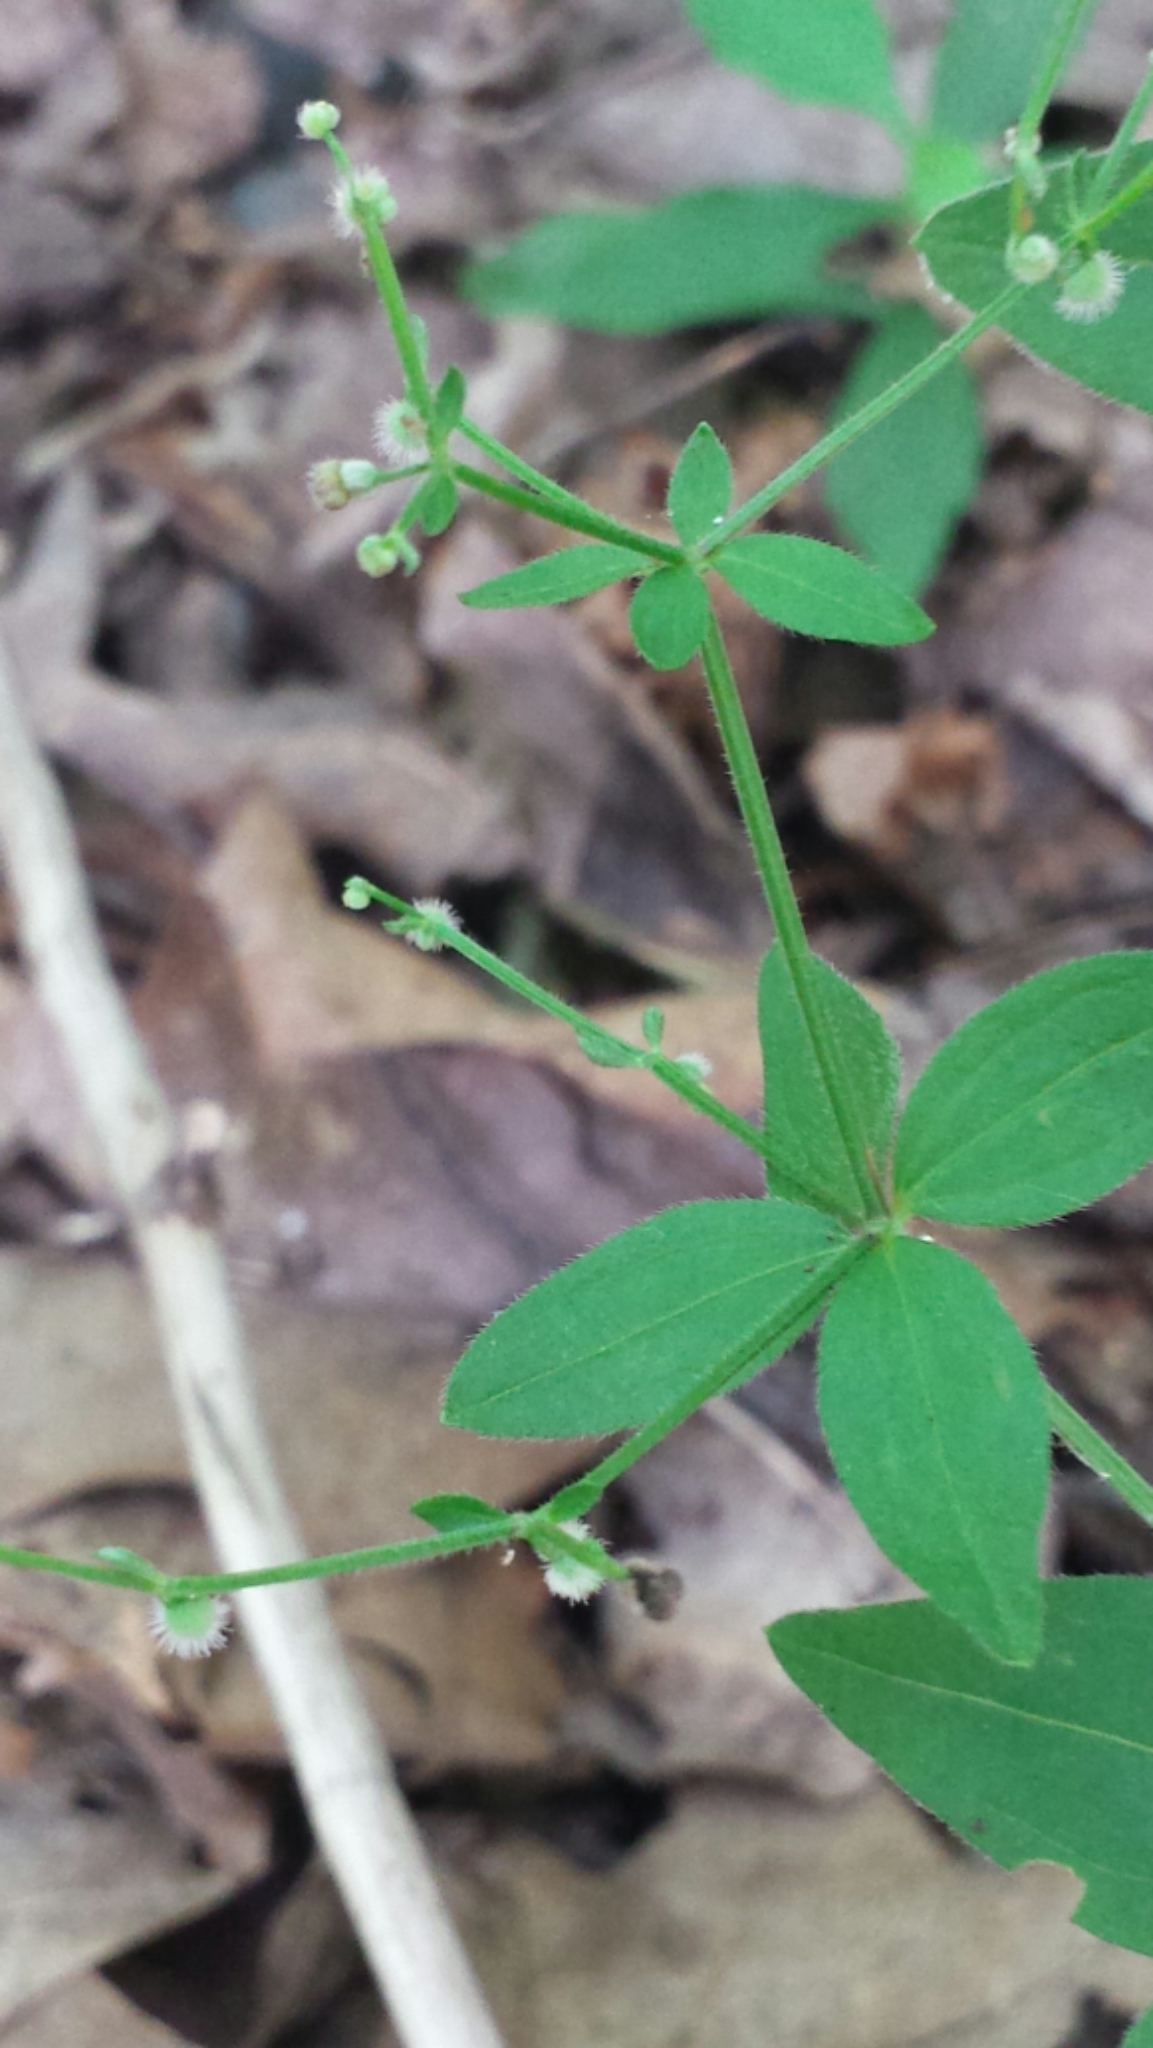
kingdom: Plantae
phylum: Tracheophyta
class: Magnoliopsida
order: Gentianales
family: Rubiaceae
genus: Galium
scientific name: Galium circaezans
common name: Forest bedstraw
